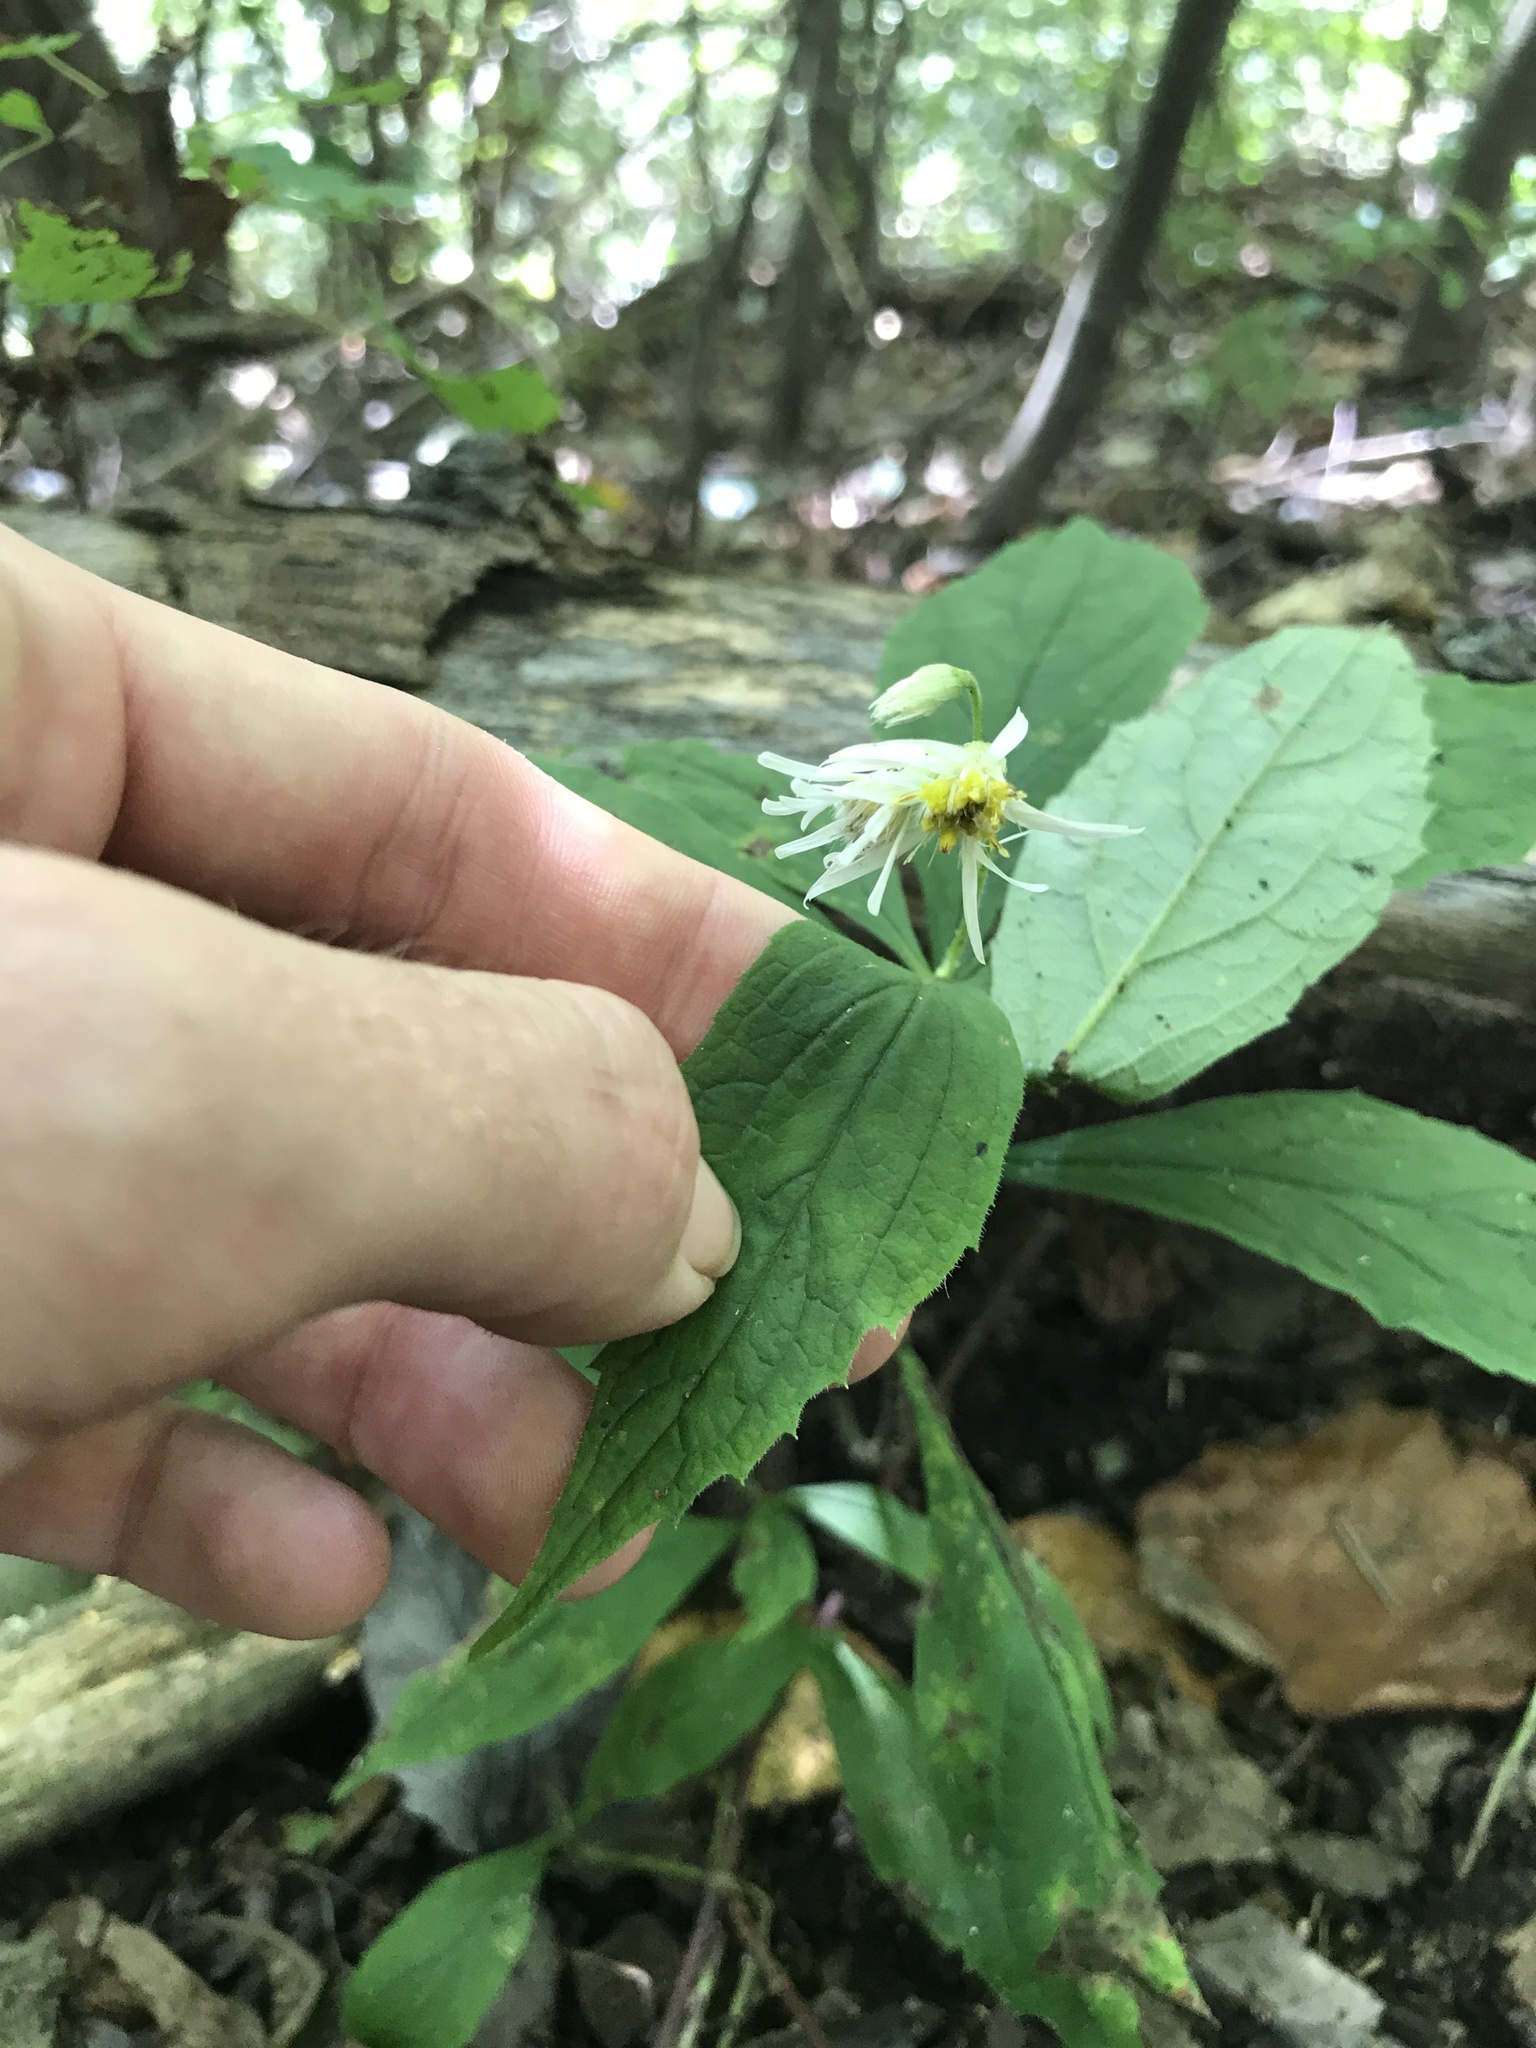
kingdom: Plantae
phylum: Tracheophyta
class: Magnoliopsida
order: Asterales
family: Asteraceae
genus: Oclemena
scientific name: Oclemena acuminata
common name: Mountain aster
